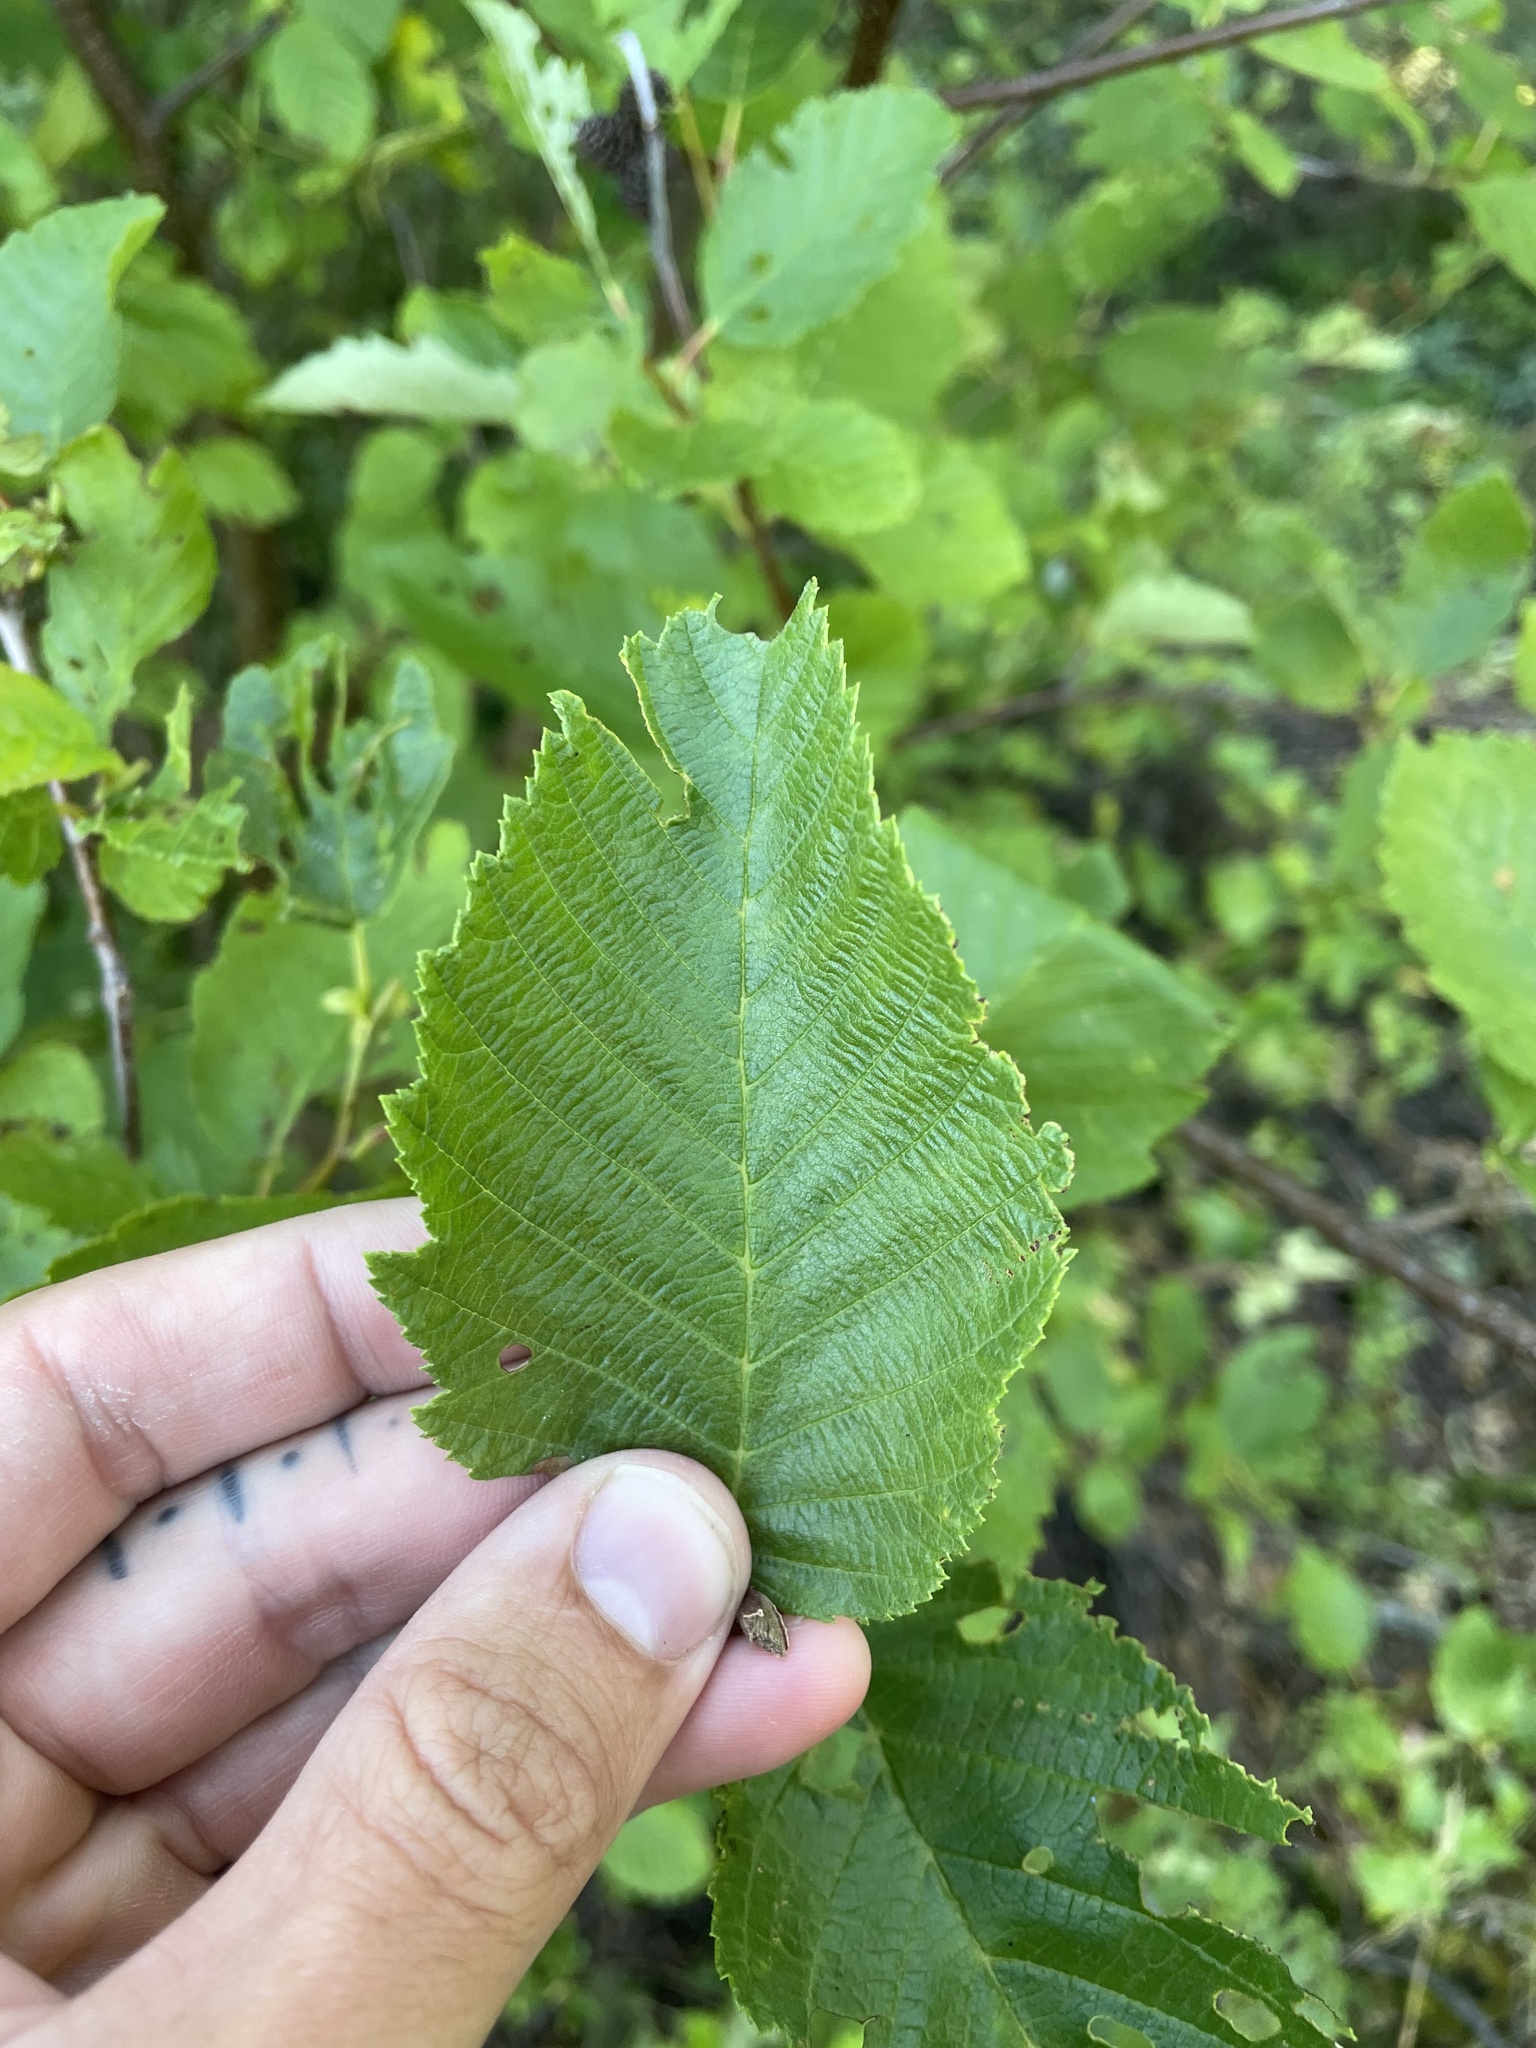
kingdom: Plantae
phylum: Tracheophyta
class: Magnoliopsida
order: Fagales
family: Betulaceae
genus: Alnus
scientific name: Alnus incana
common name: Grey alder
